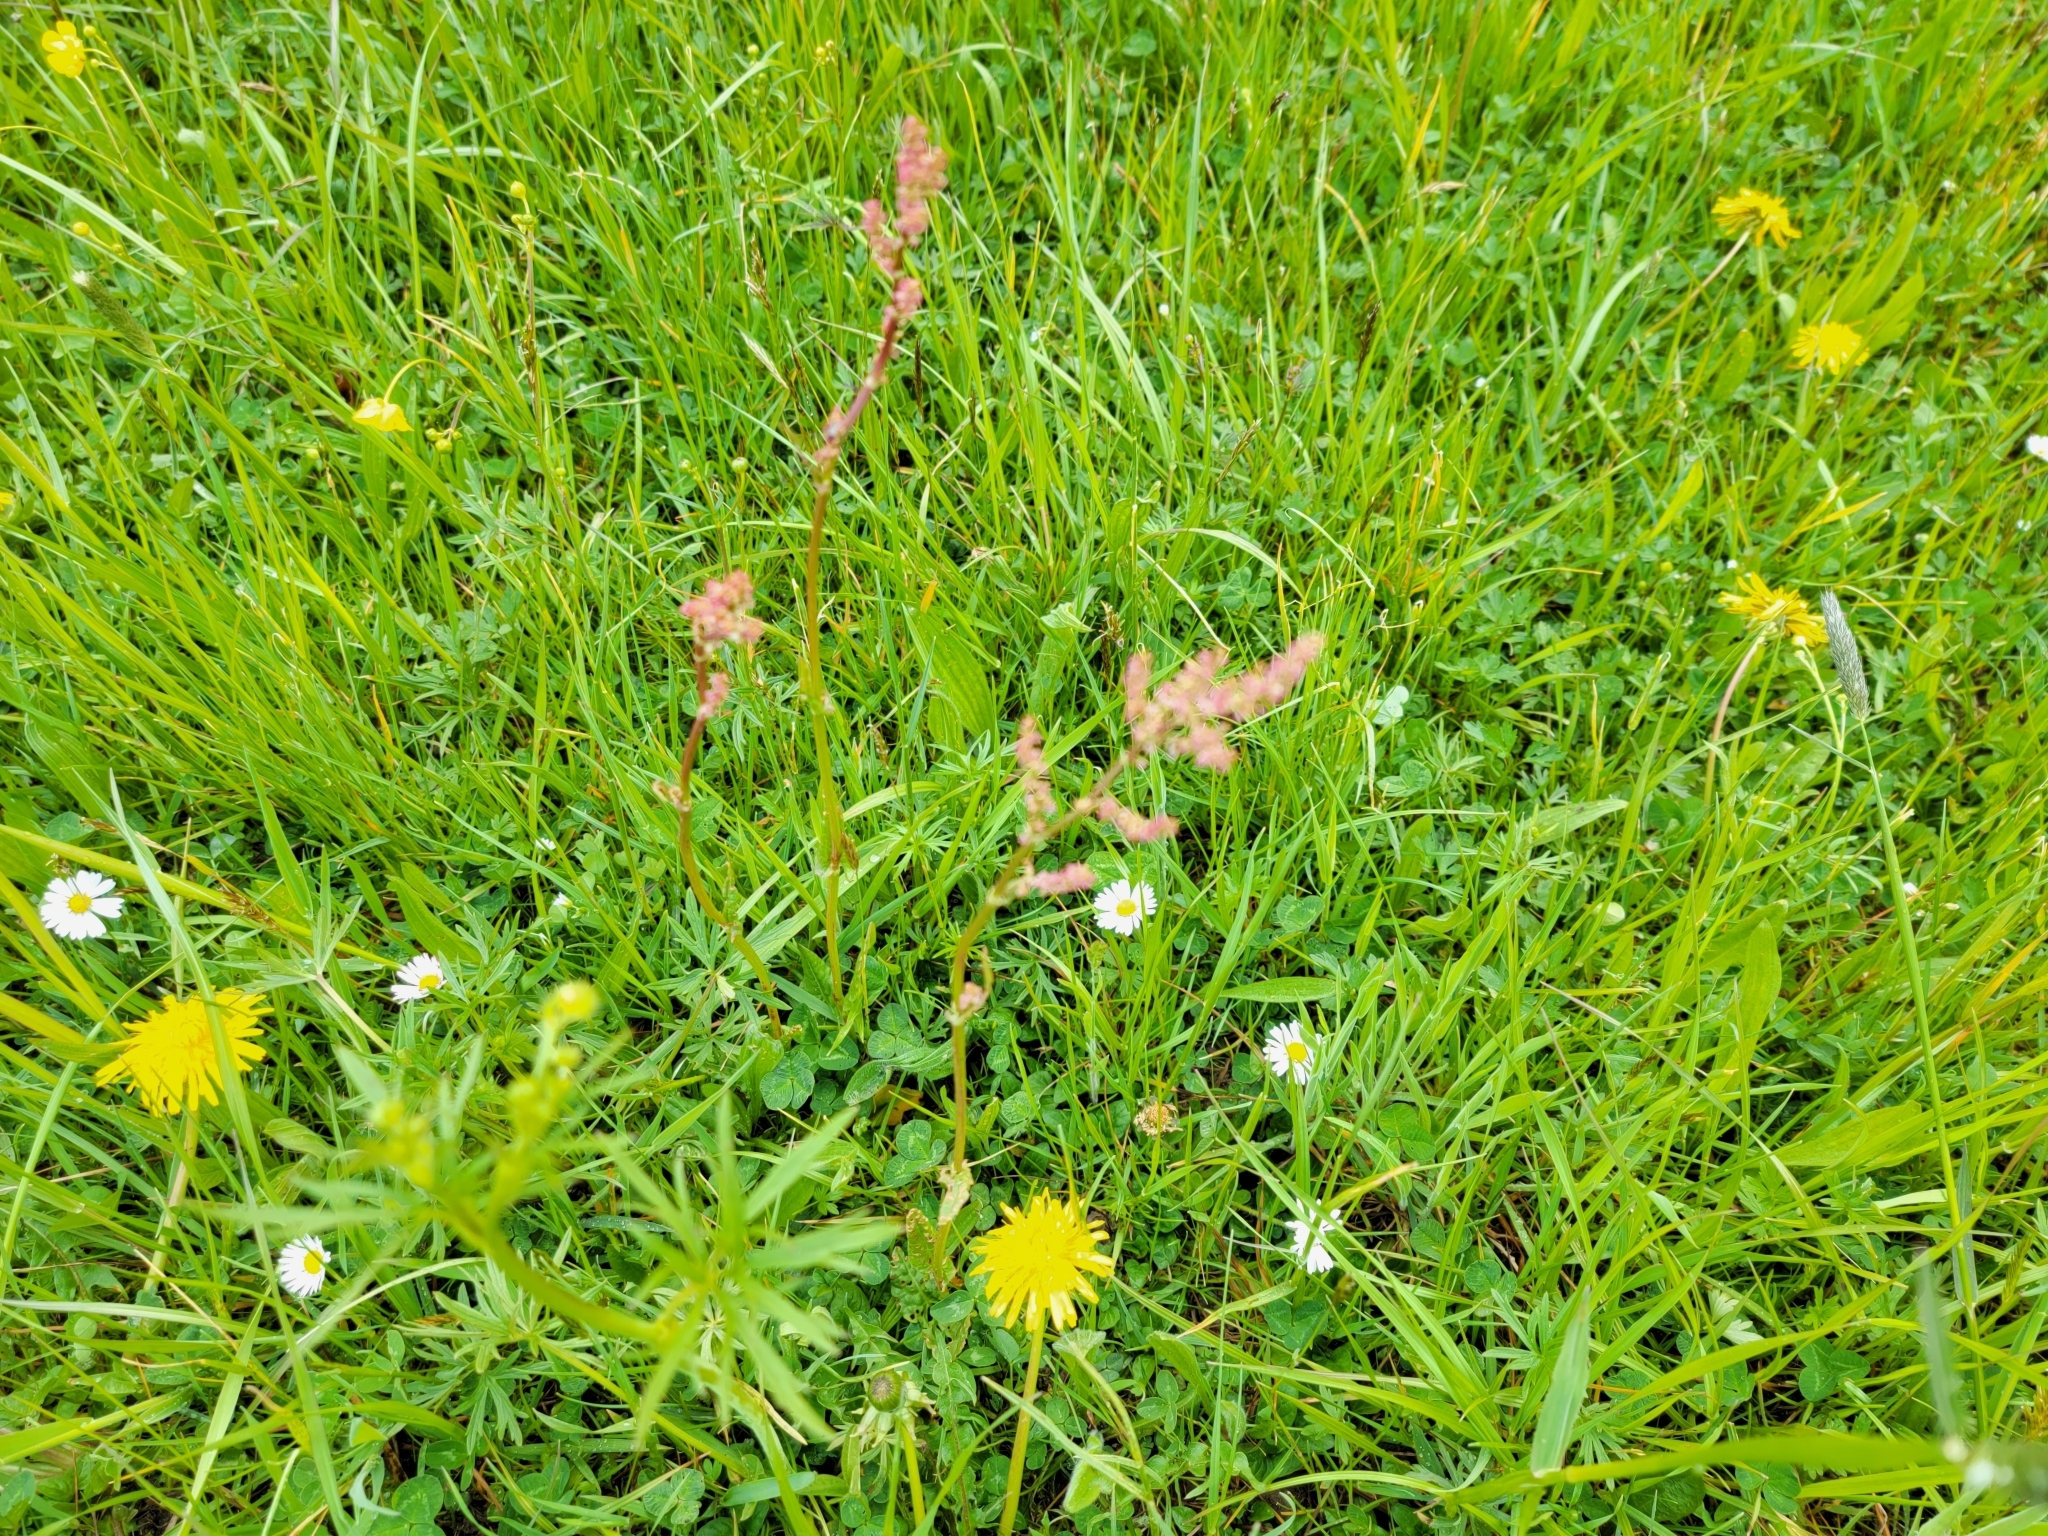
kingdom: Plantae
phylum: Tracheophyta
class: Magnoliopsida
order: Caryophyllales
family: Polygonaceae
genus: Rumex
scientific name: Rumex acetosa
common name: Garden sorrel
